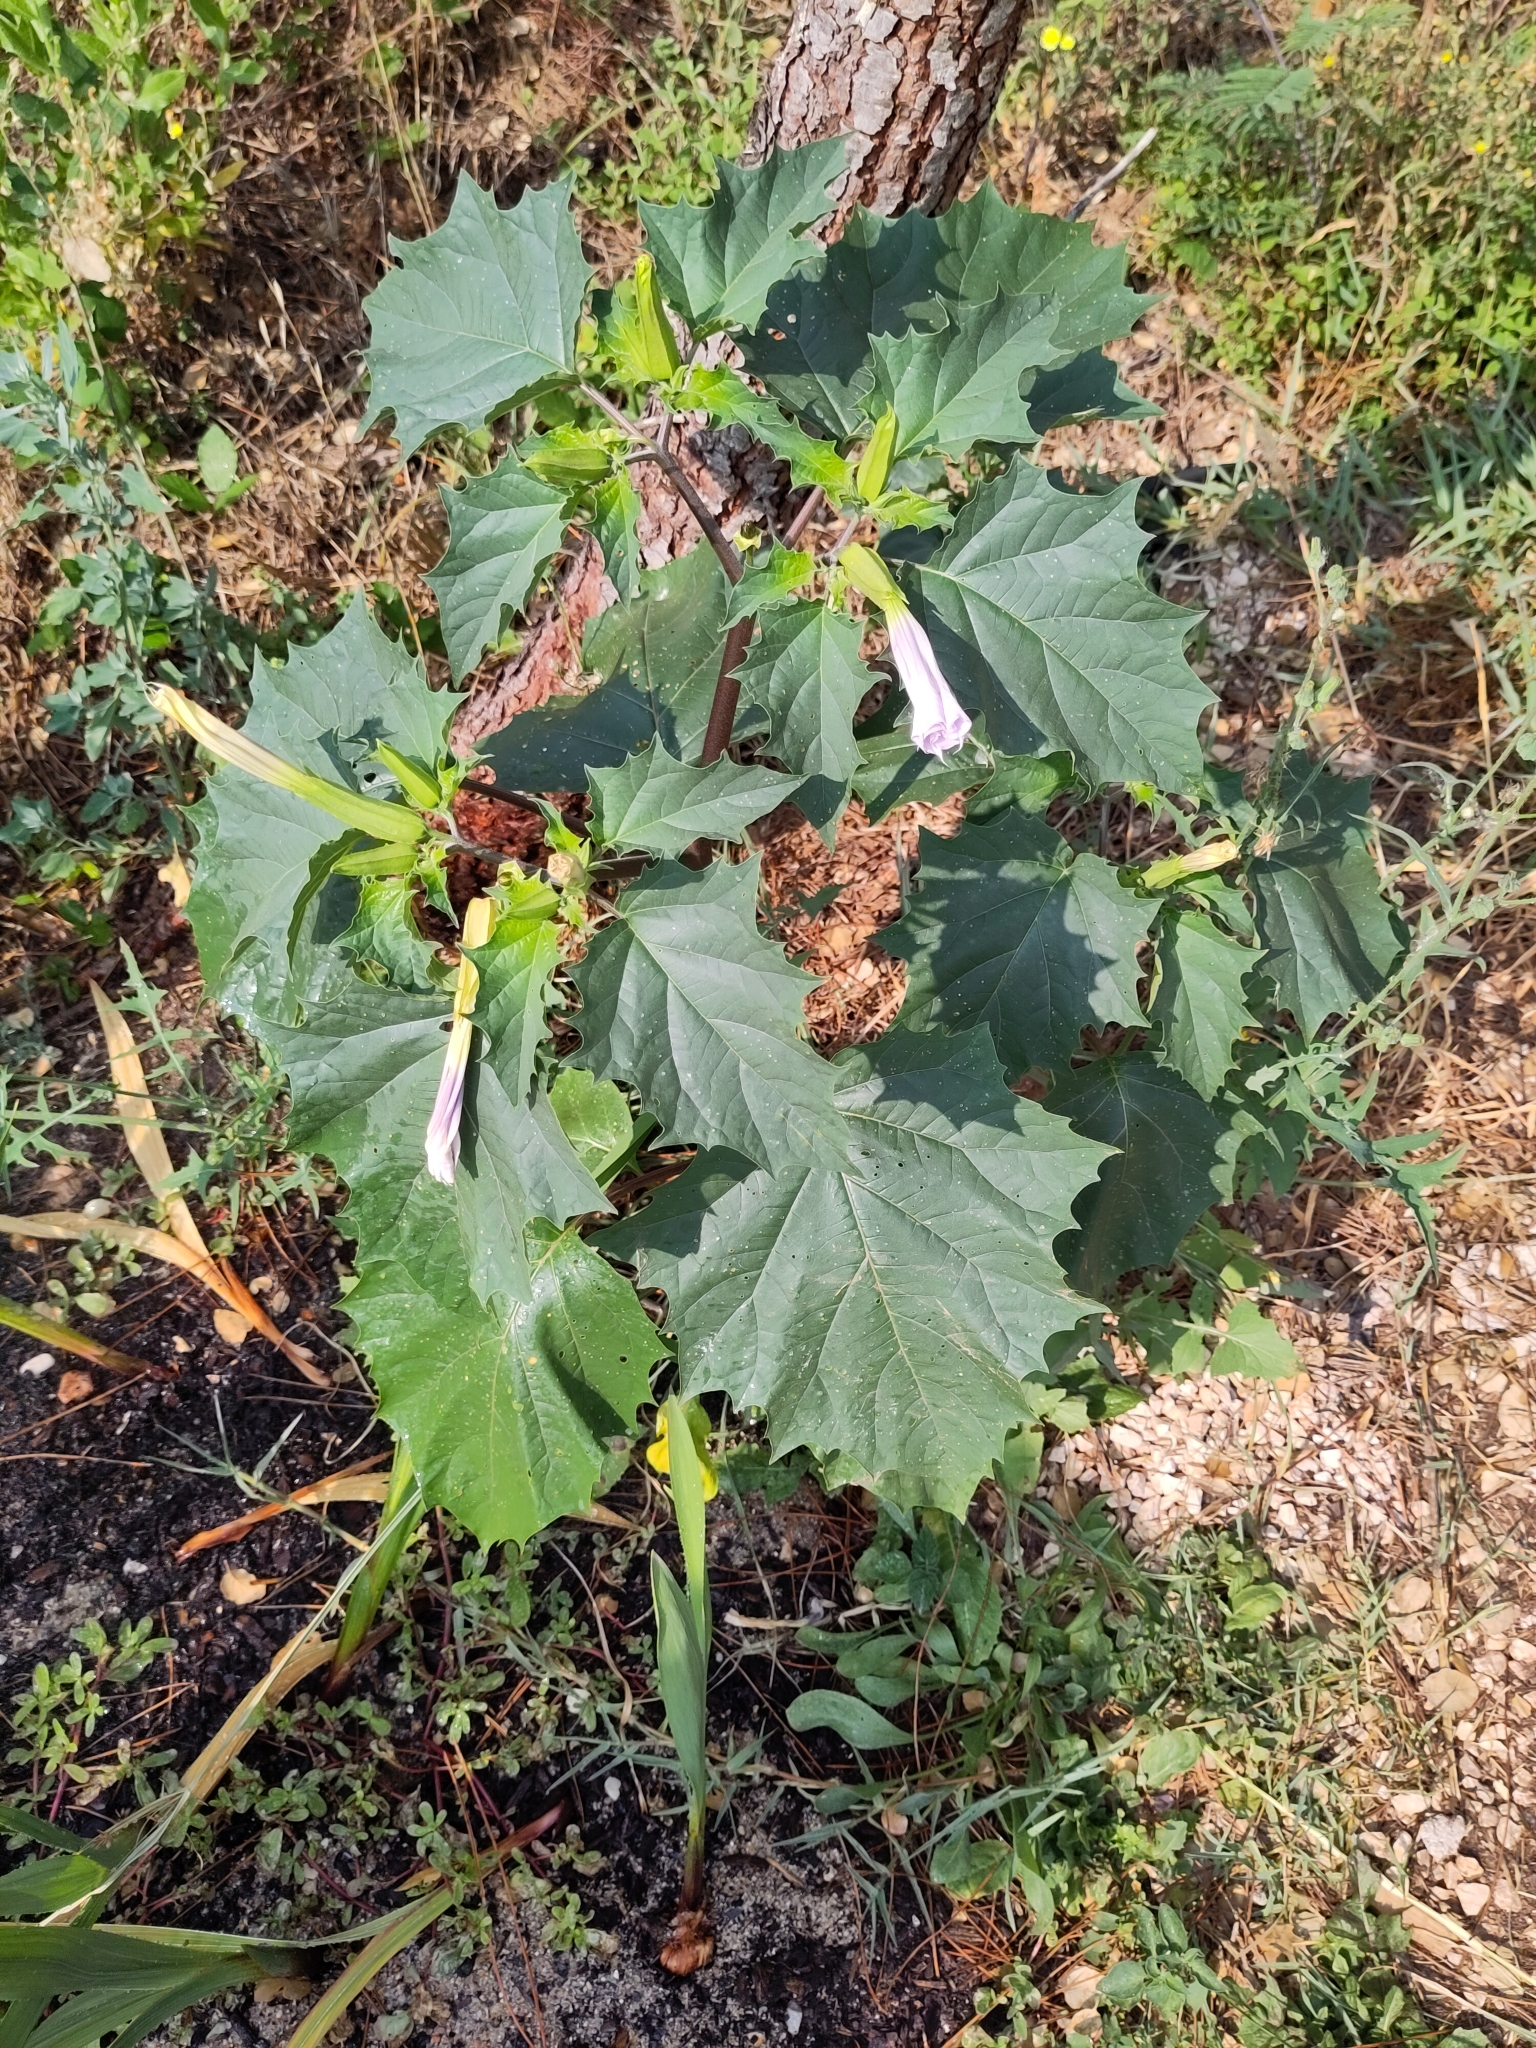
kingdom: Plantae
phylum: Tracheophyta
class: Magnoliopsida
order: Solanales
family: Solanaceae
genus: Datura
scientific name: Datura stramonium
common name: Thorn-apple
